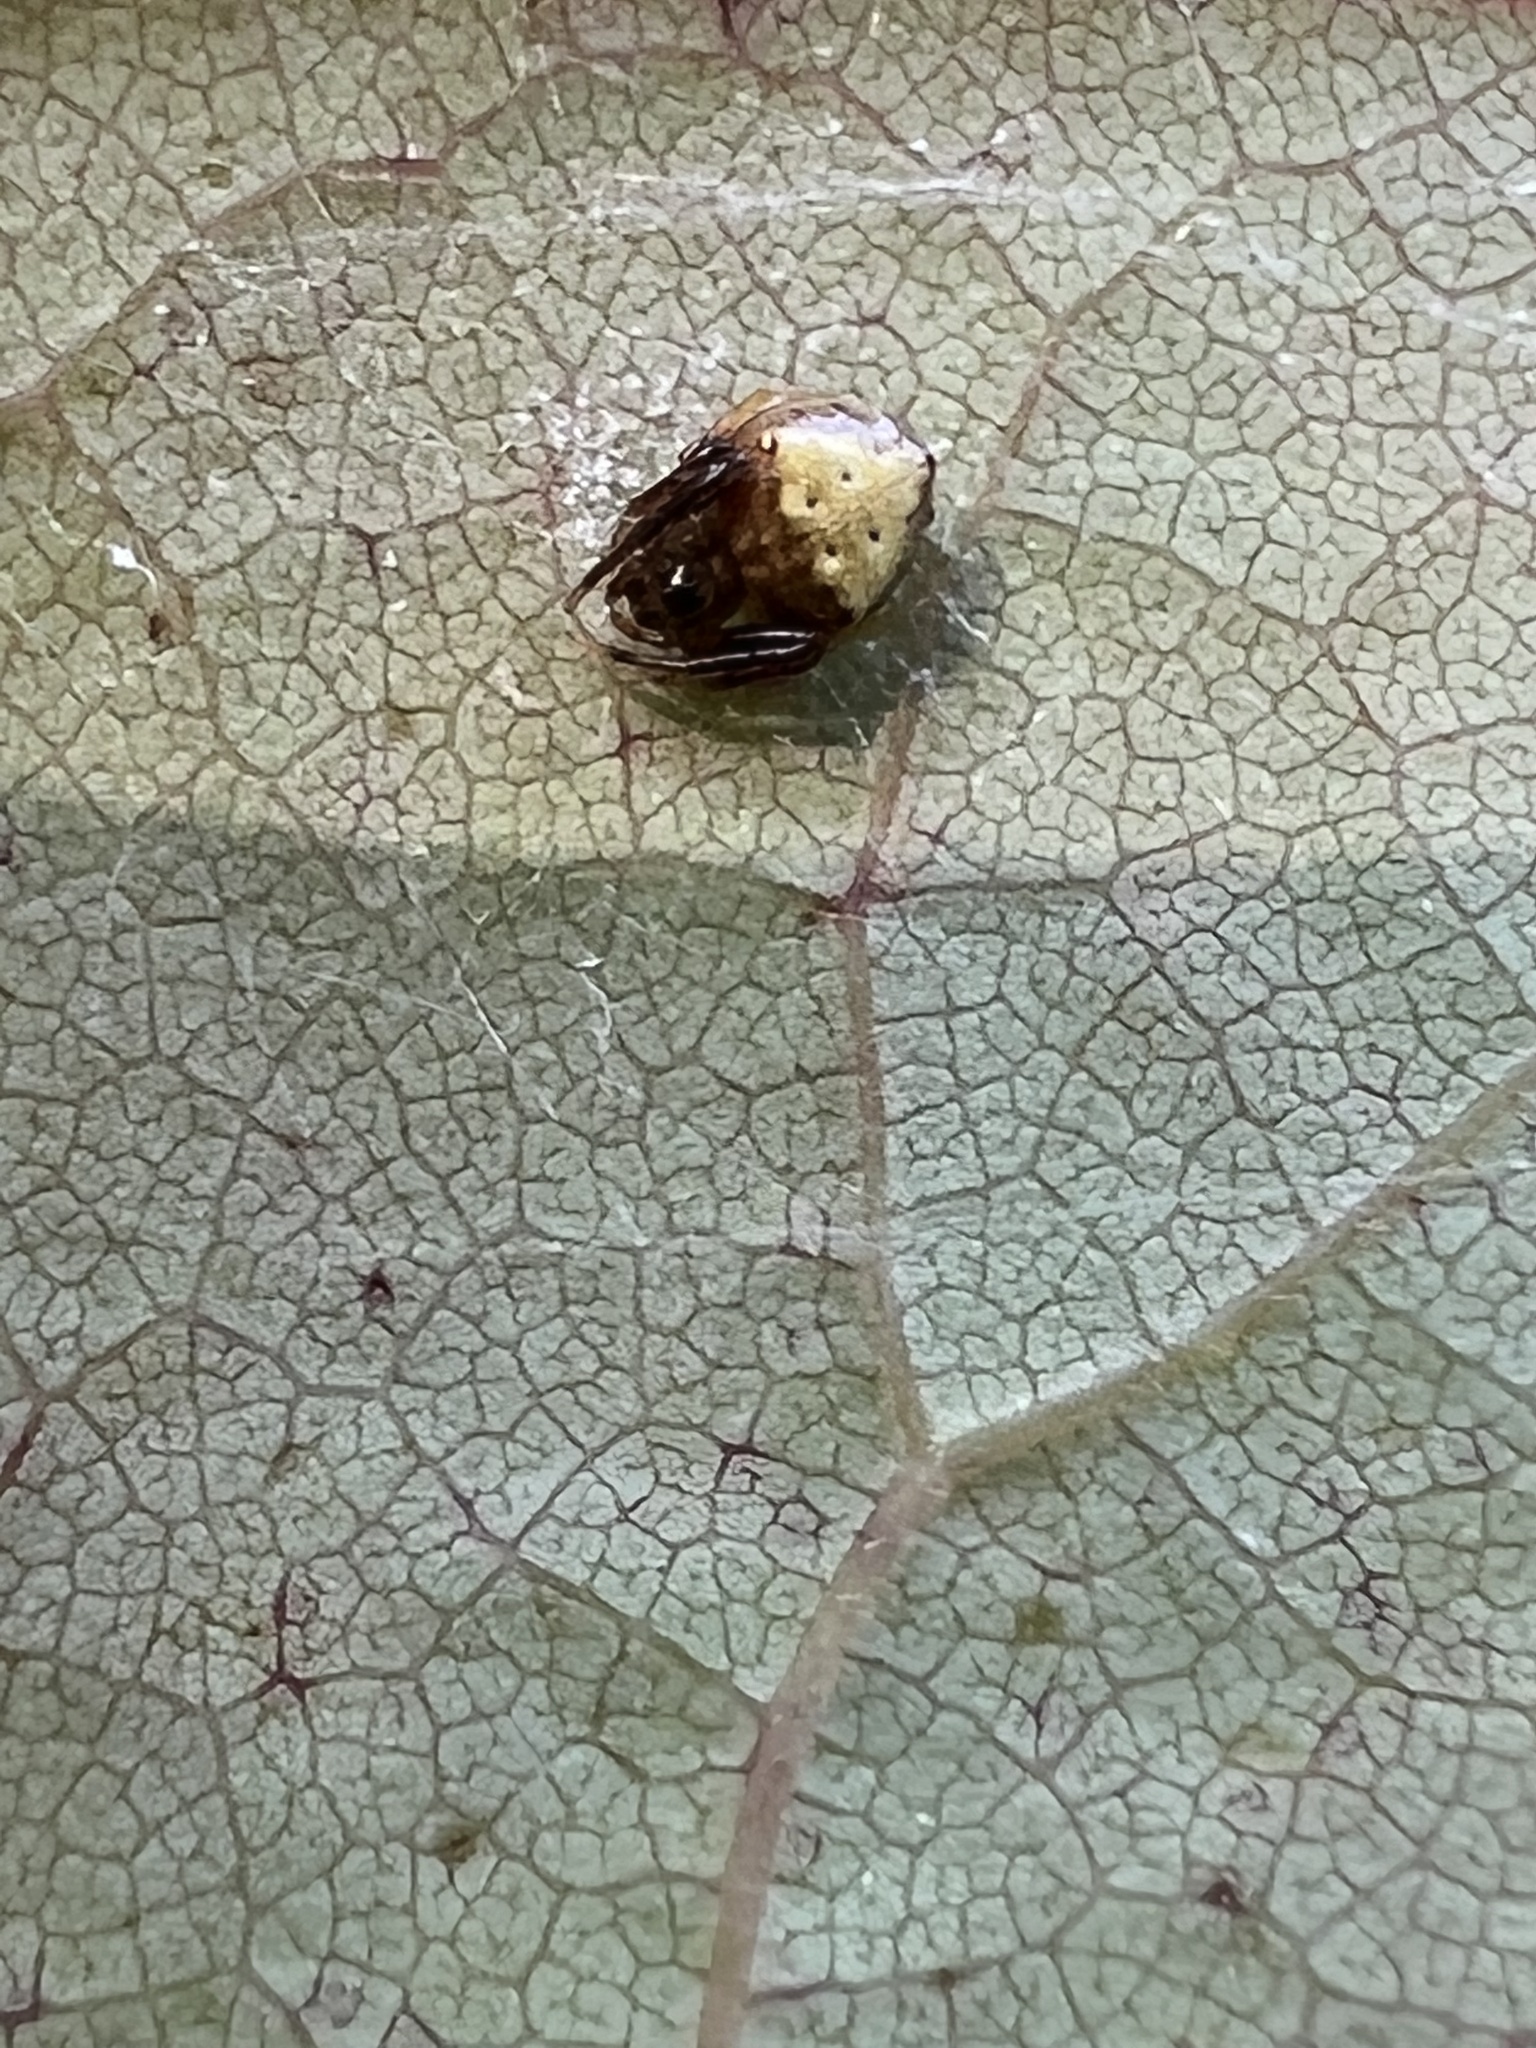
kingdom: Animalia
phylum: Arthropoda
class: Arachnida
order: Araneae
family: Araneidae
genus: Verrucosa
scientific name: Verrucosa arenata
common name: Orb weavers
